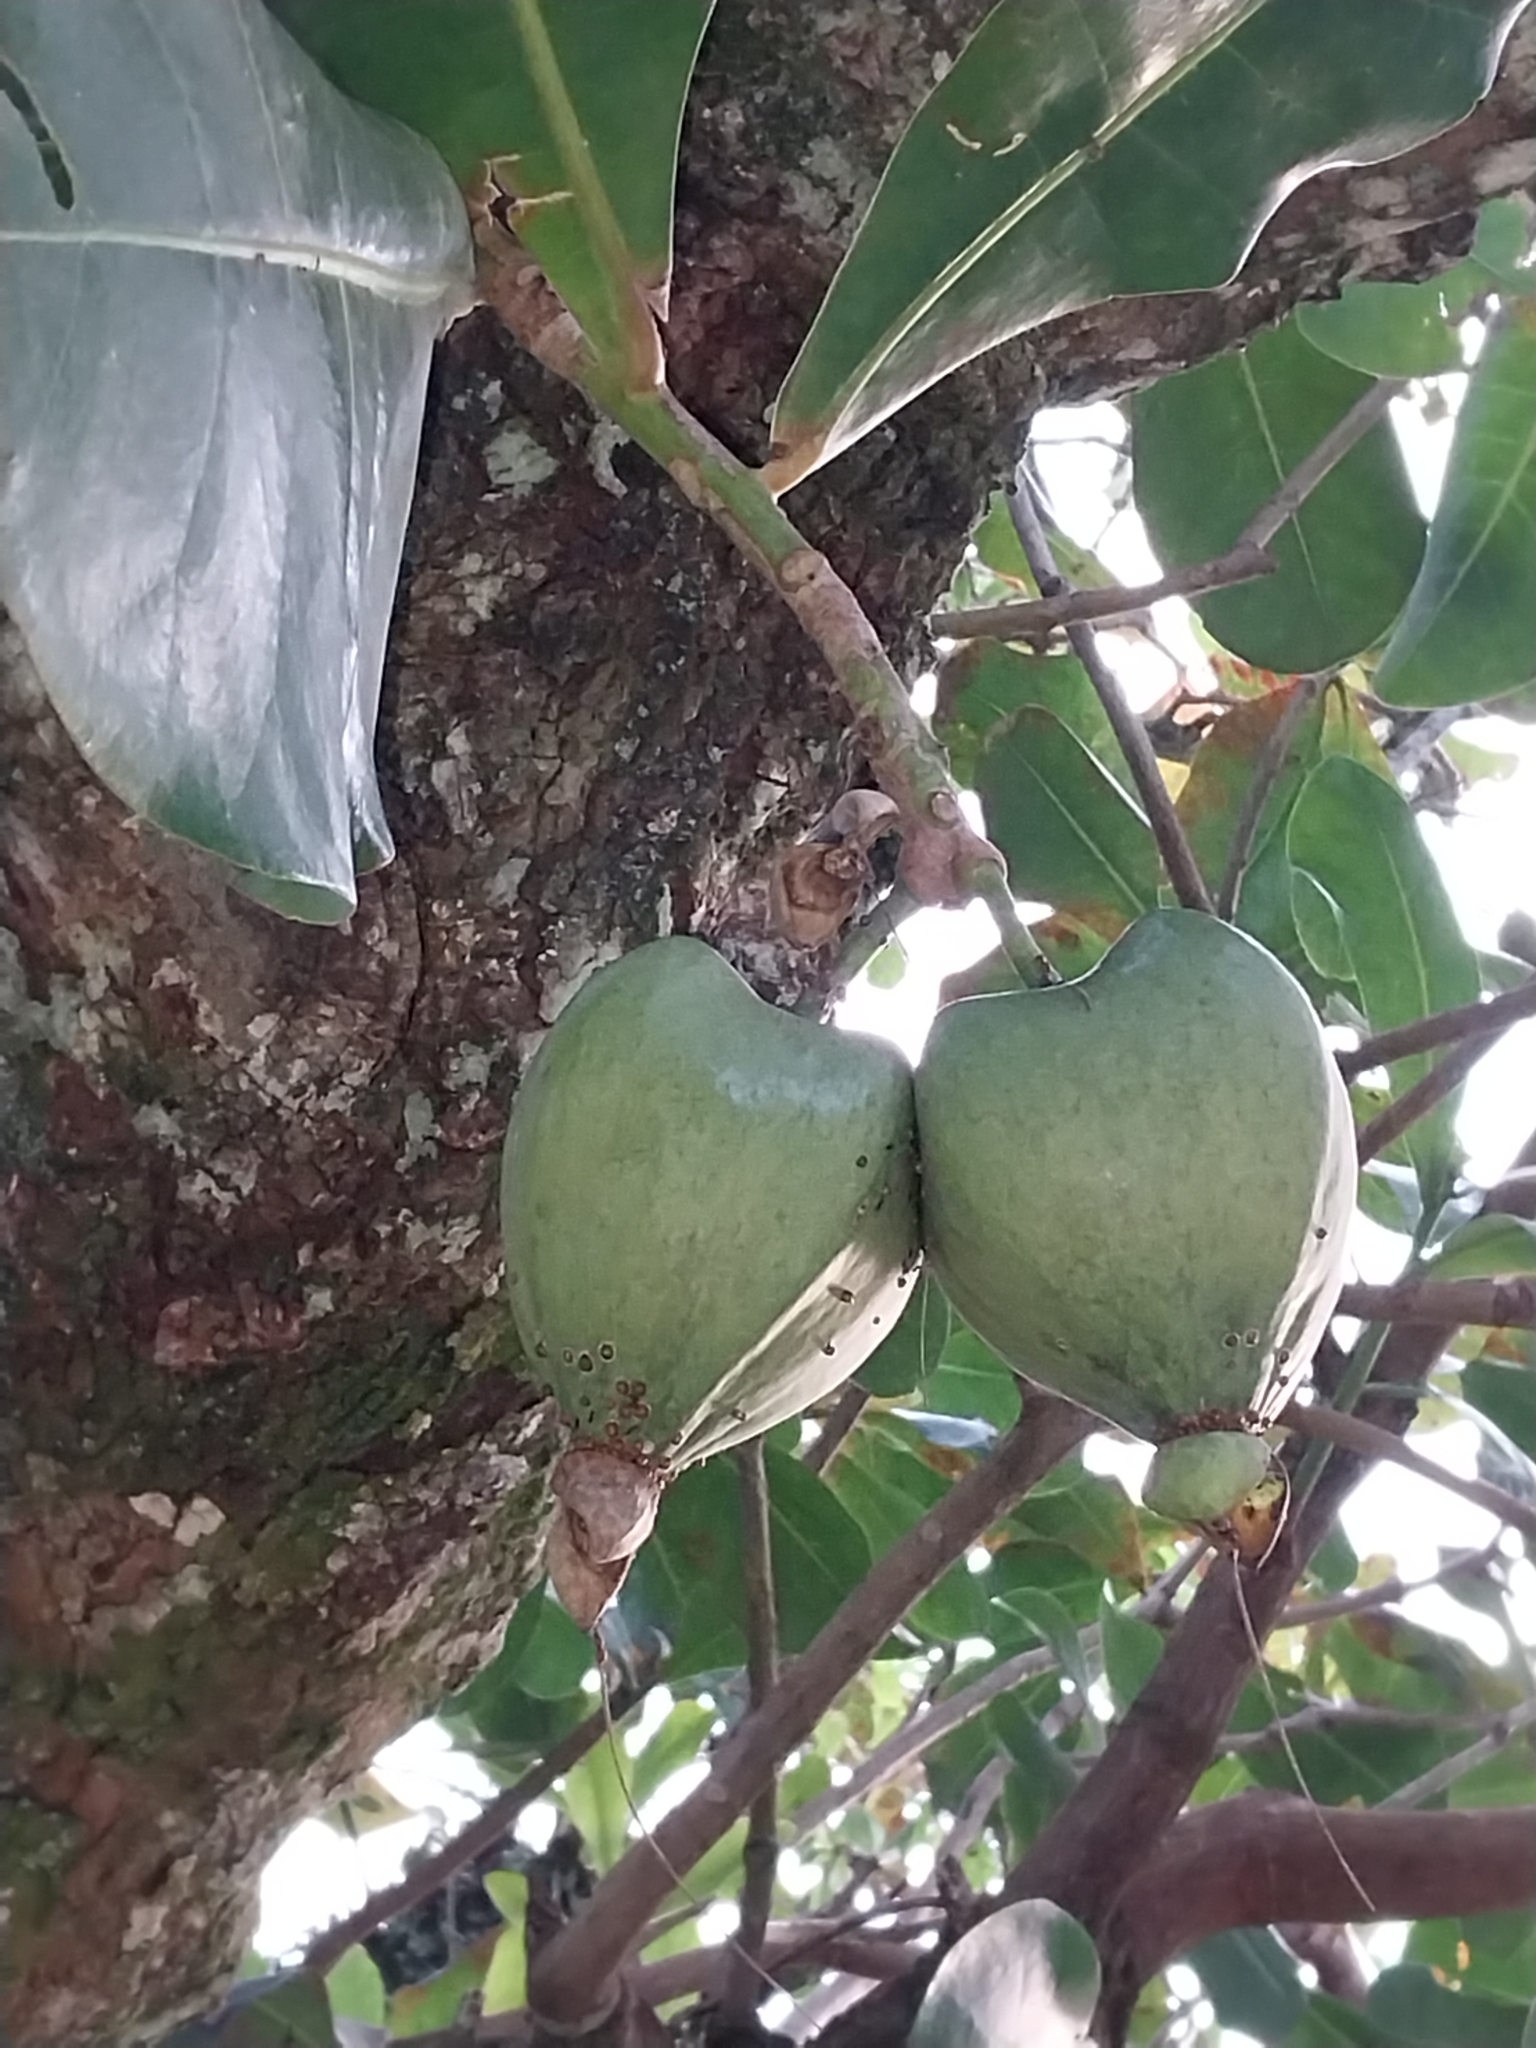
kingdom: Plantae
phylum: Tracheophyta
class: Magnoliopsida
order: Ericales
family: Lecythidaceae
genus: Barringtonia
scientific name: Barringtonia asiatica
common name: Mango-pine
